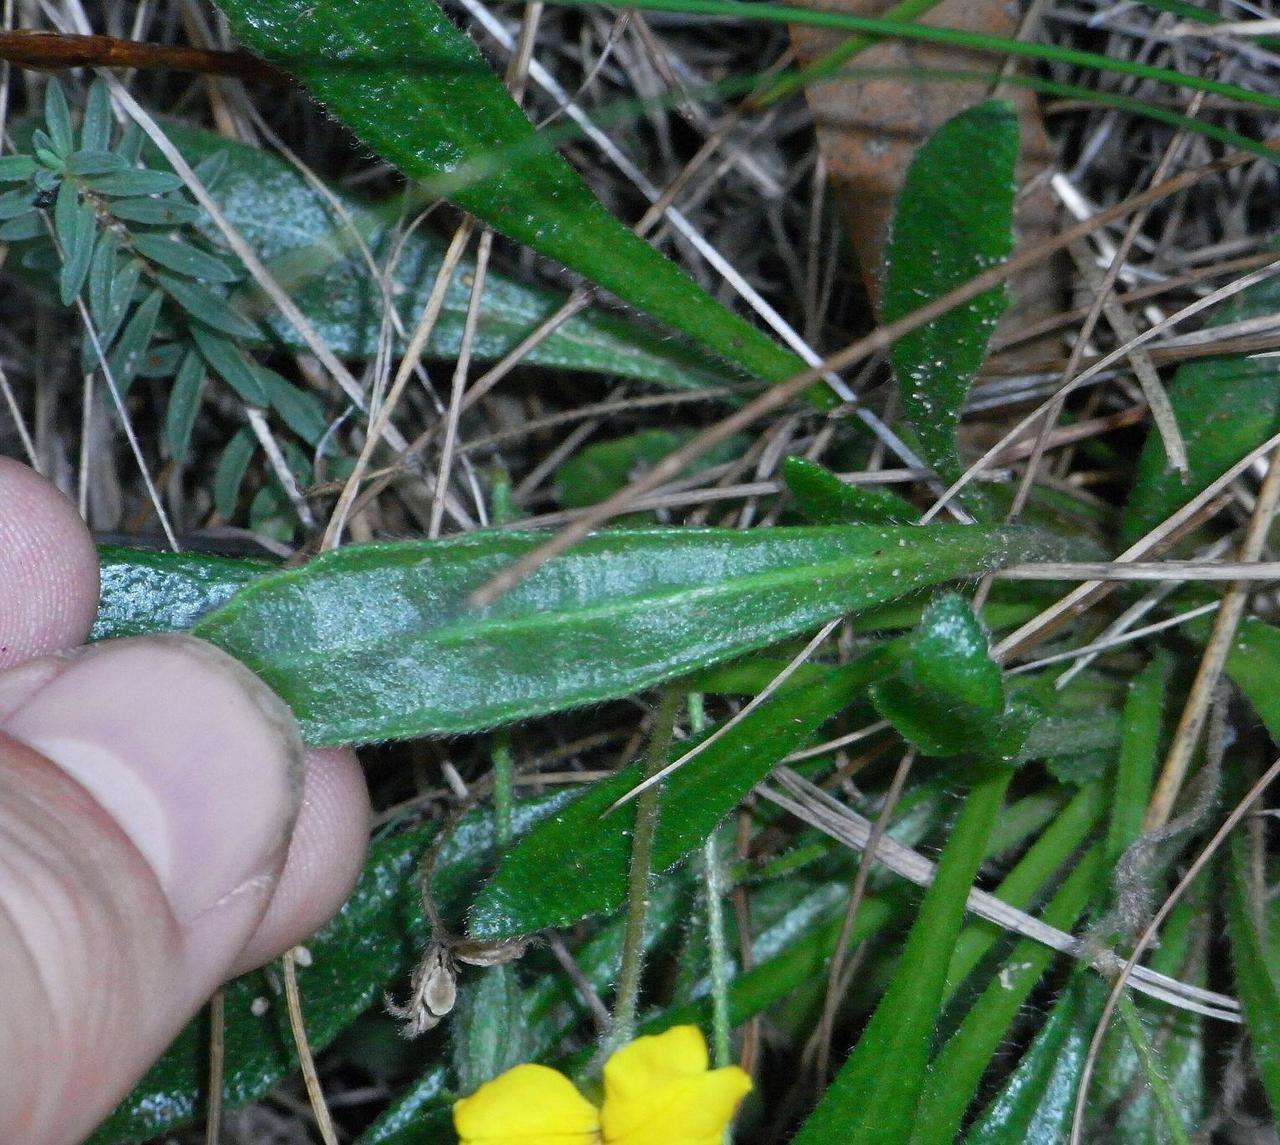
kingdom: Plantae
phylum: Tracheophyta
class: Magnoliopsida
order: Asterales
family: Goodeniaceae
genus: Goodenia
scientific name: Goodenia geniculata
